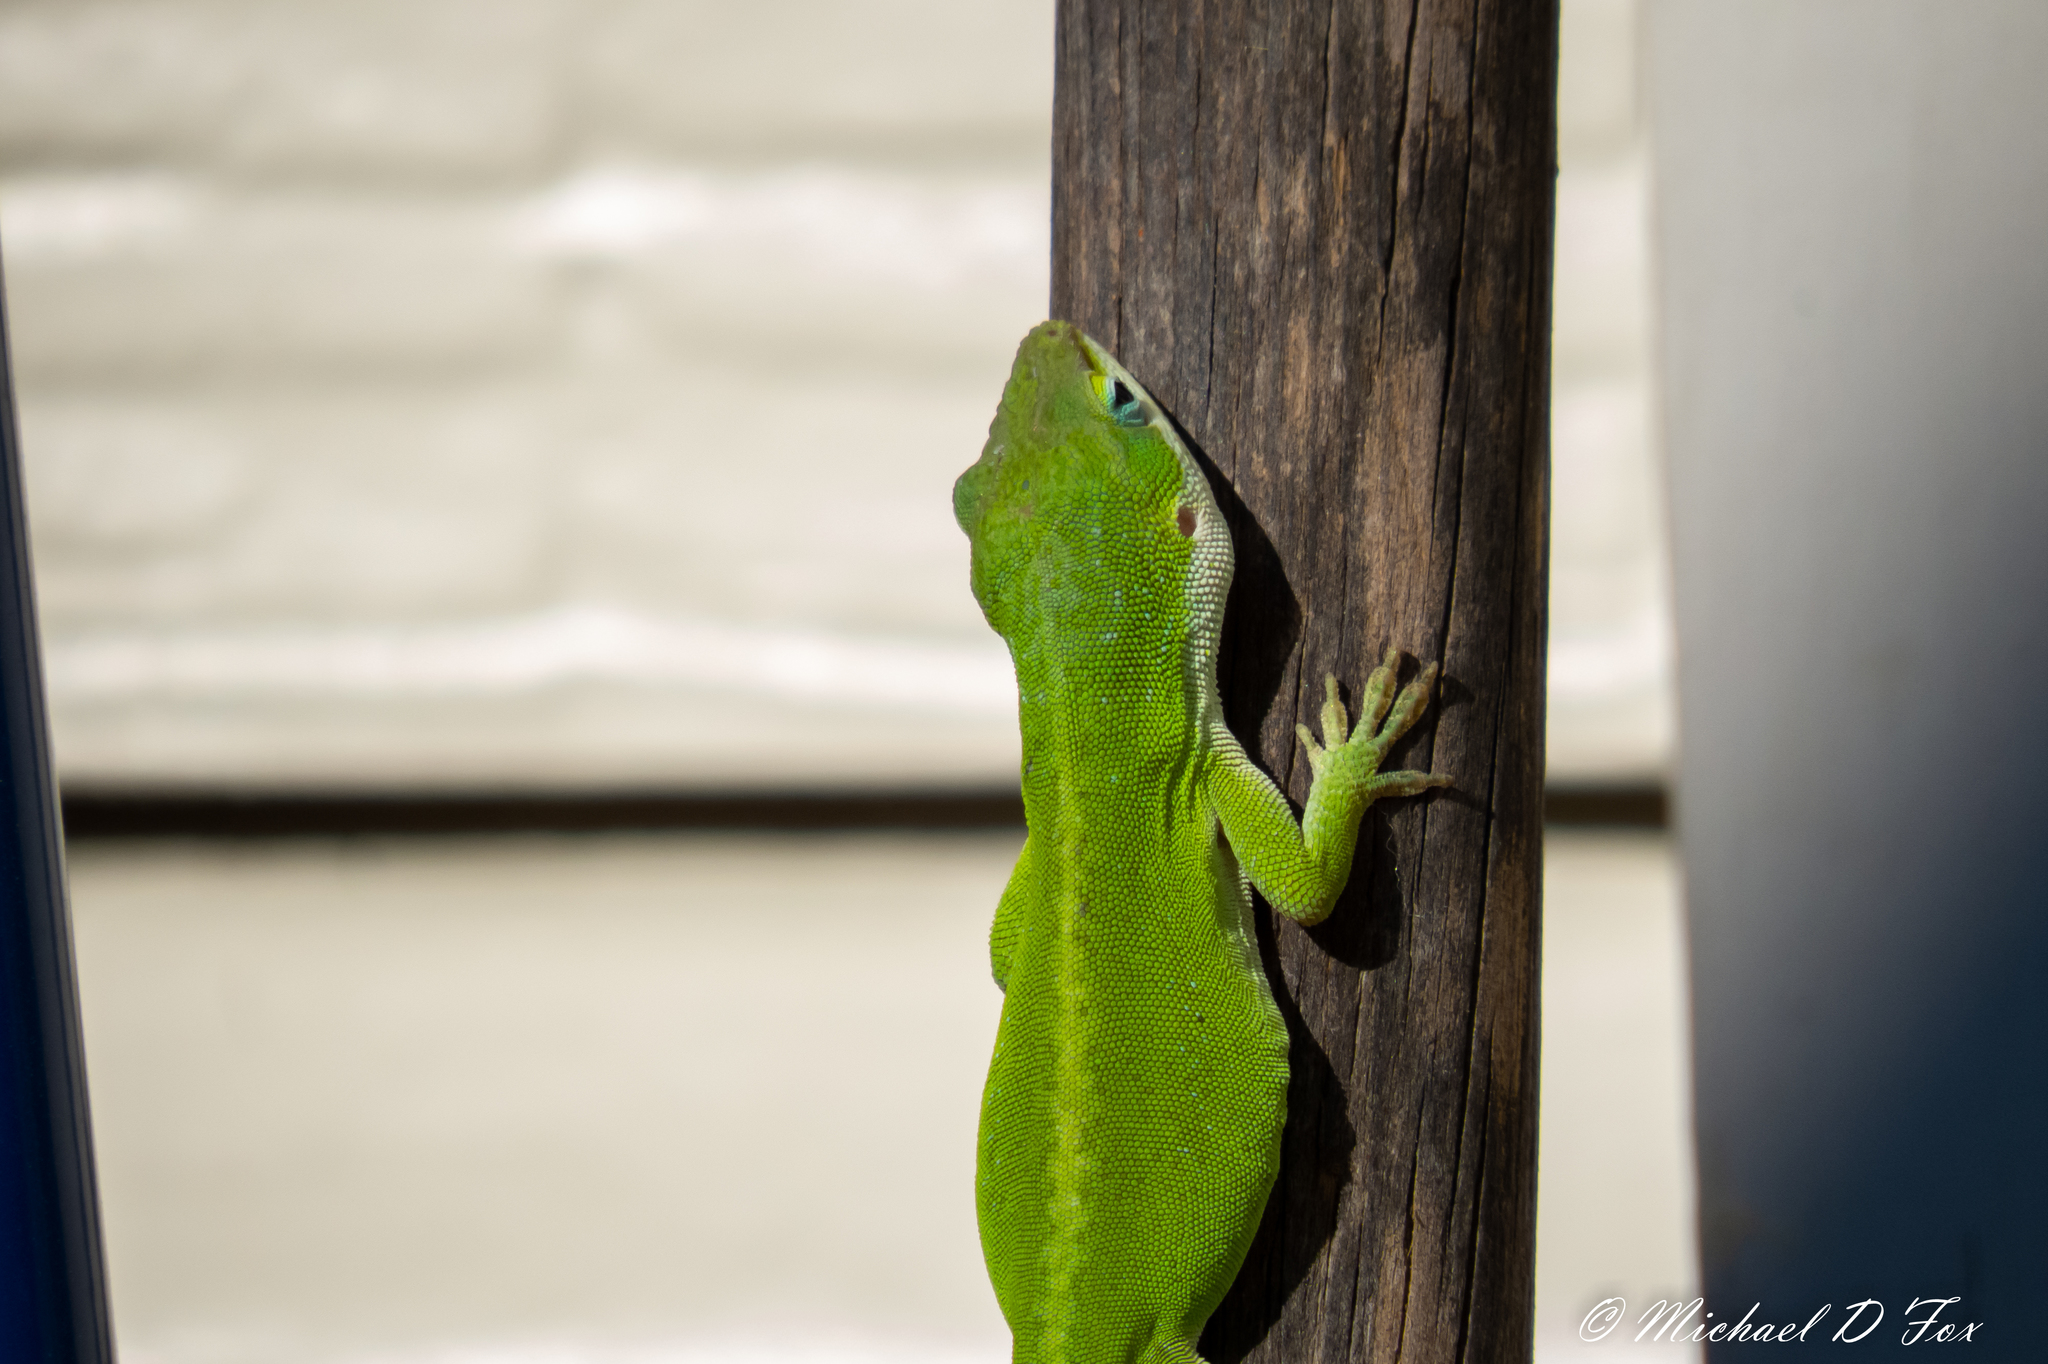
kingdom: Animalia
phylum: Chordata
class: Squamata
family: Dactyloidae
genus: Anolis
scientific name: Anolis carolinensis
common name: Green anole
